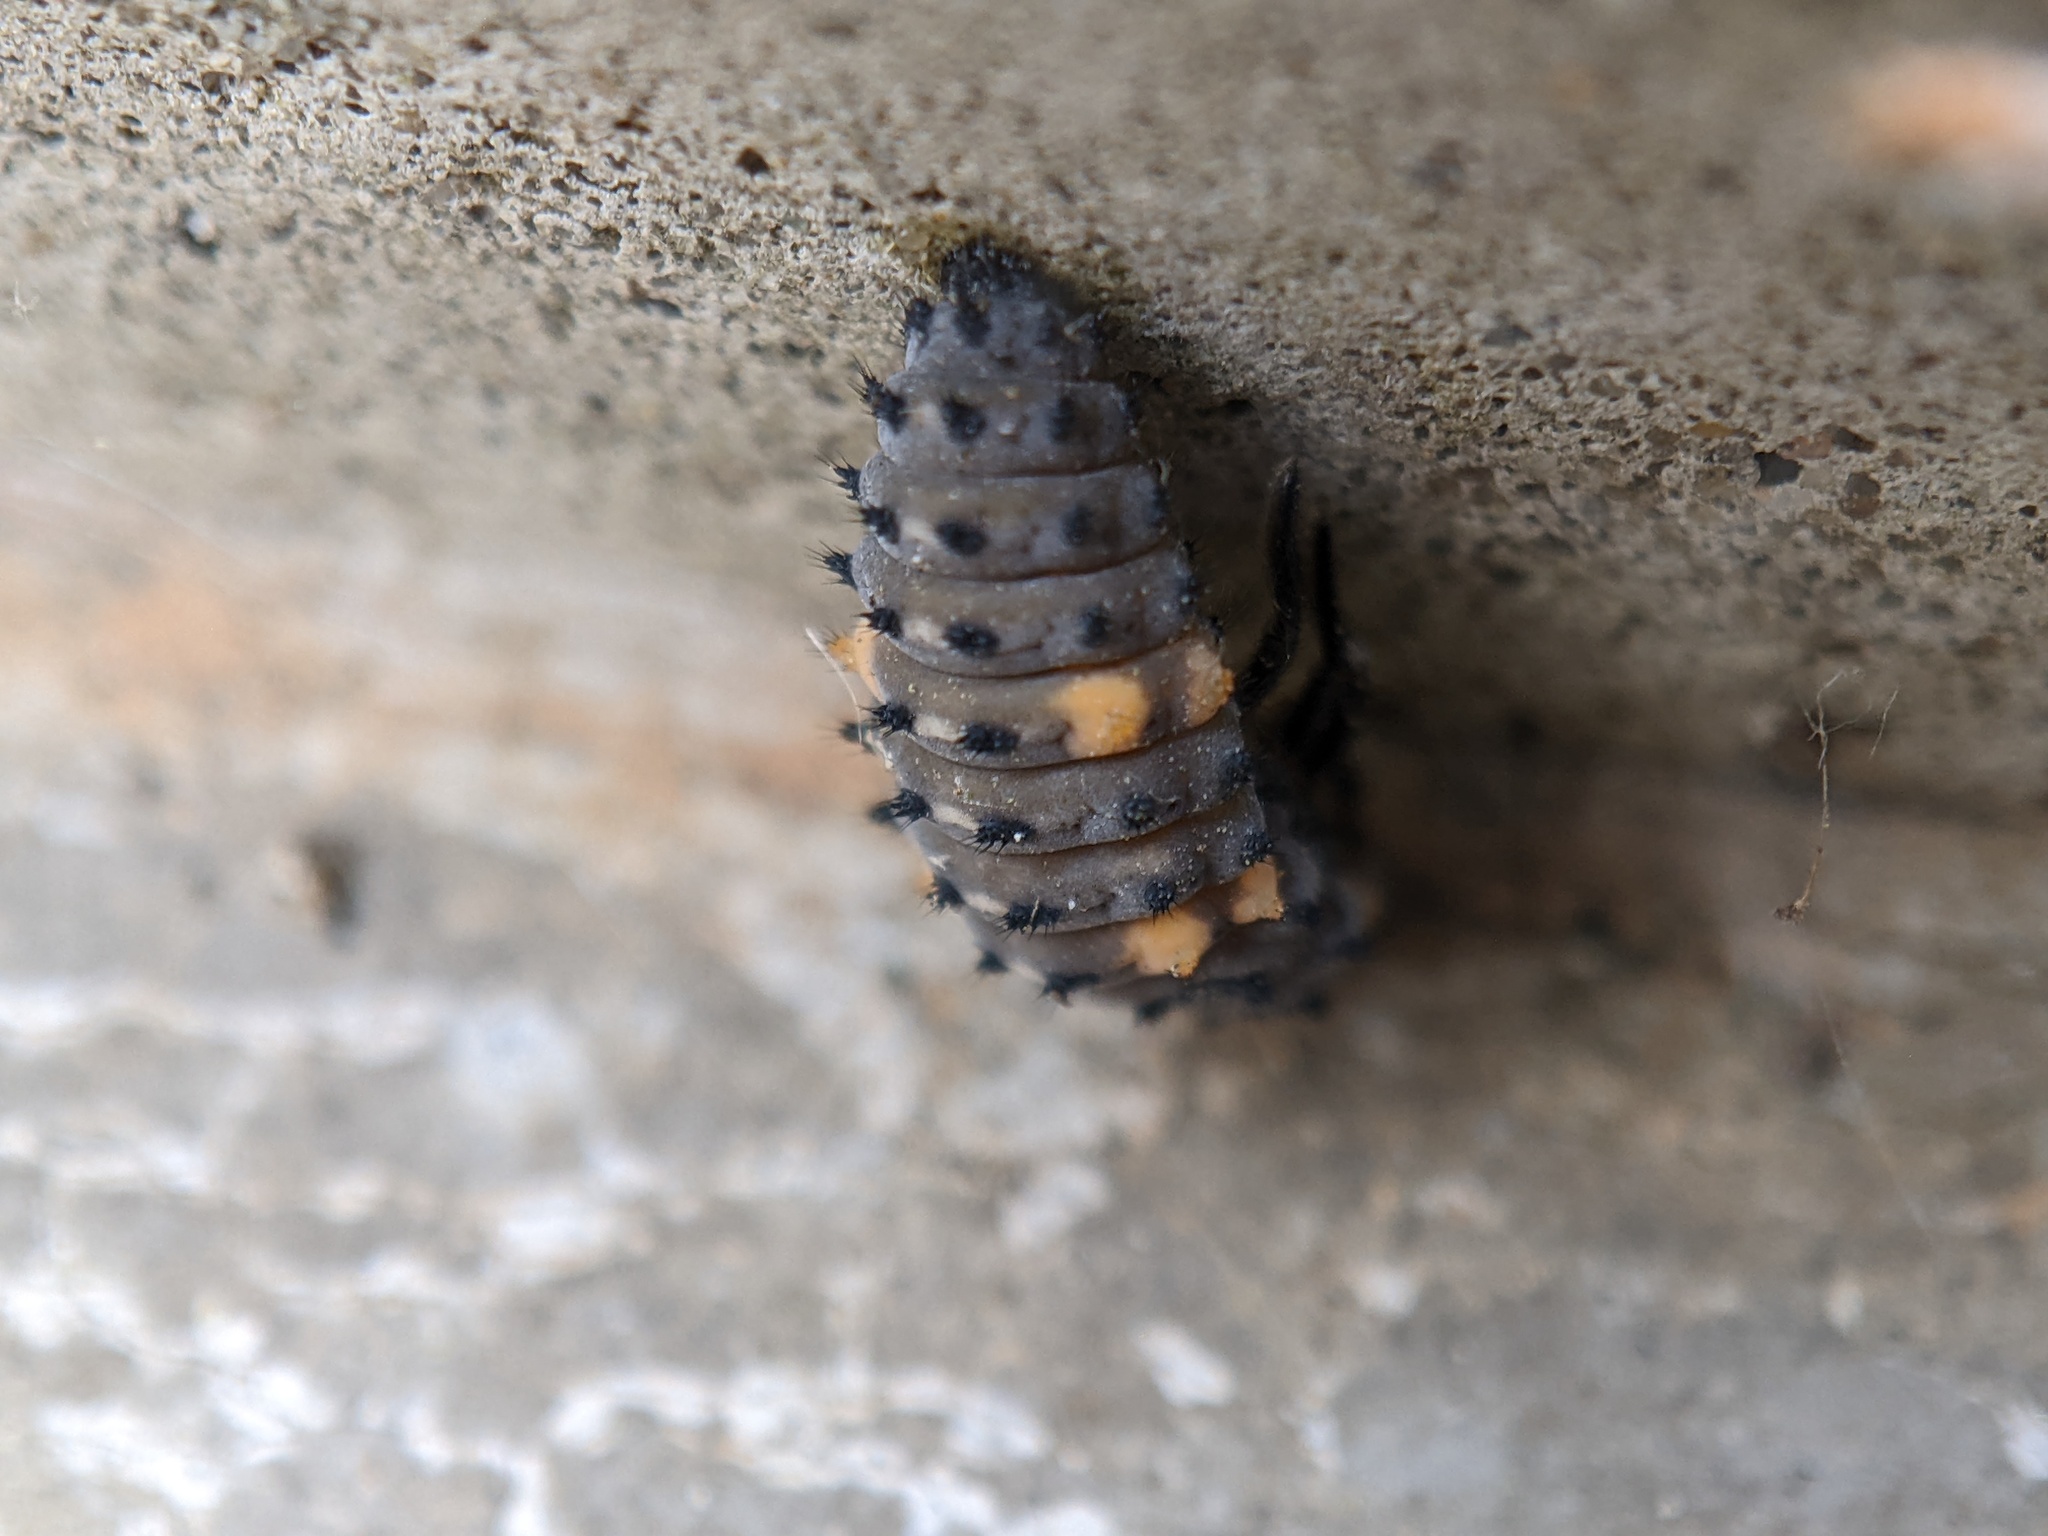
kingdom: Animalia
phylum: Arthropoda
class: Insecta
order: Coleoptera
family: Coccinellidae
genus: Coccinella
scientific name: Coccinella septempunctata
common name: Sevenspotted lady beetle
